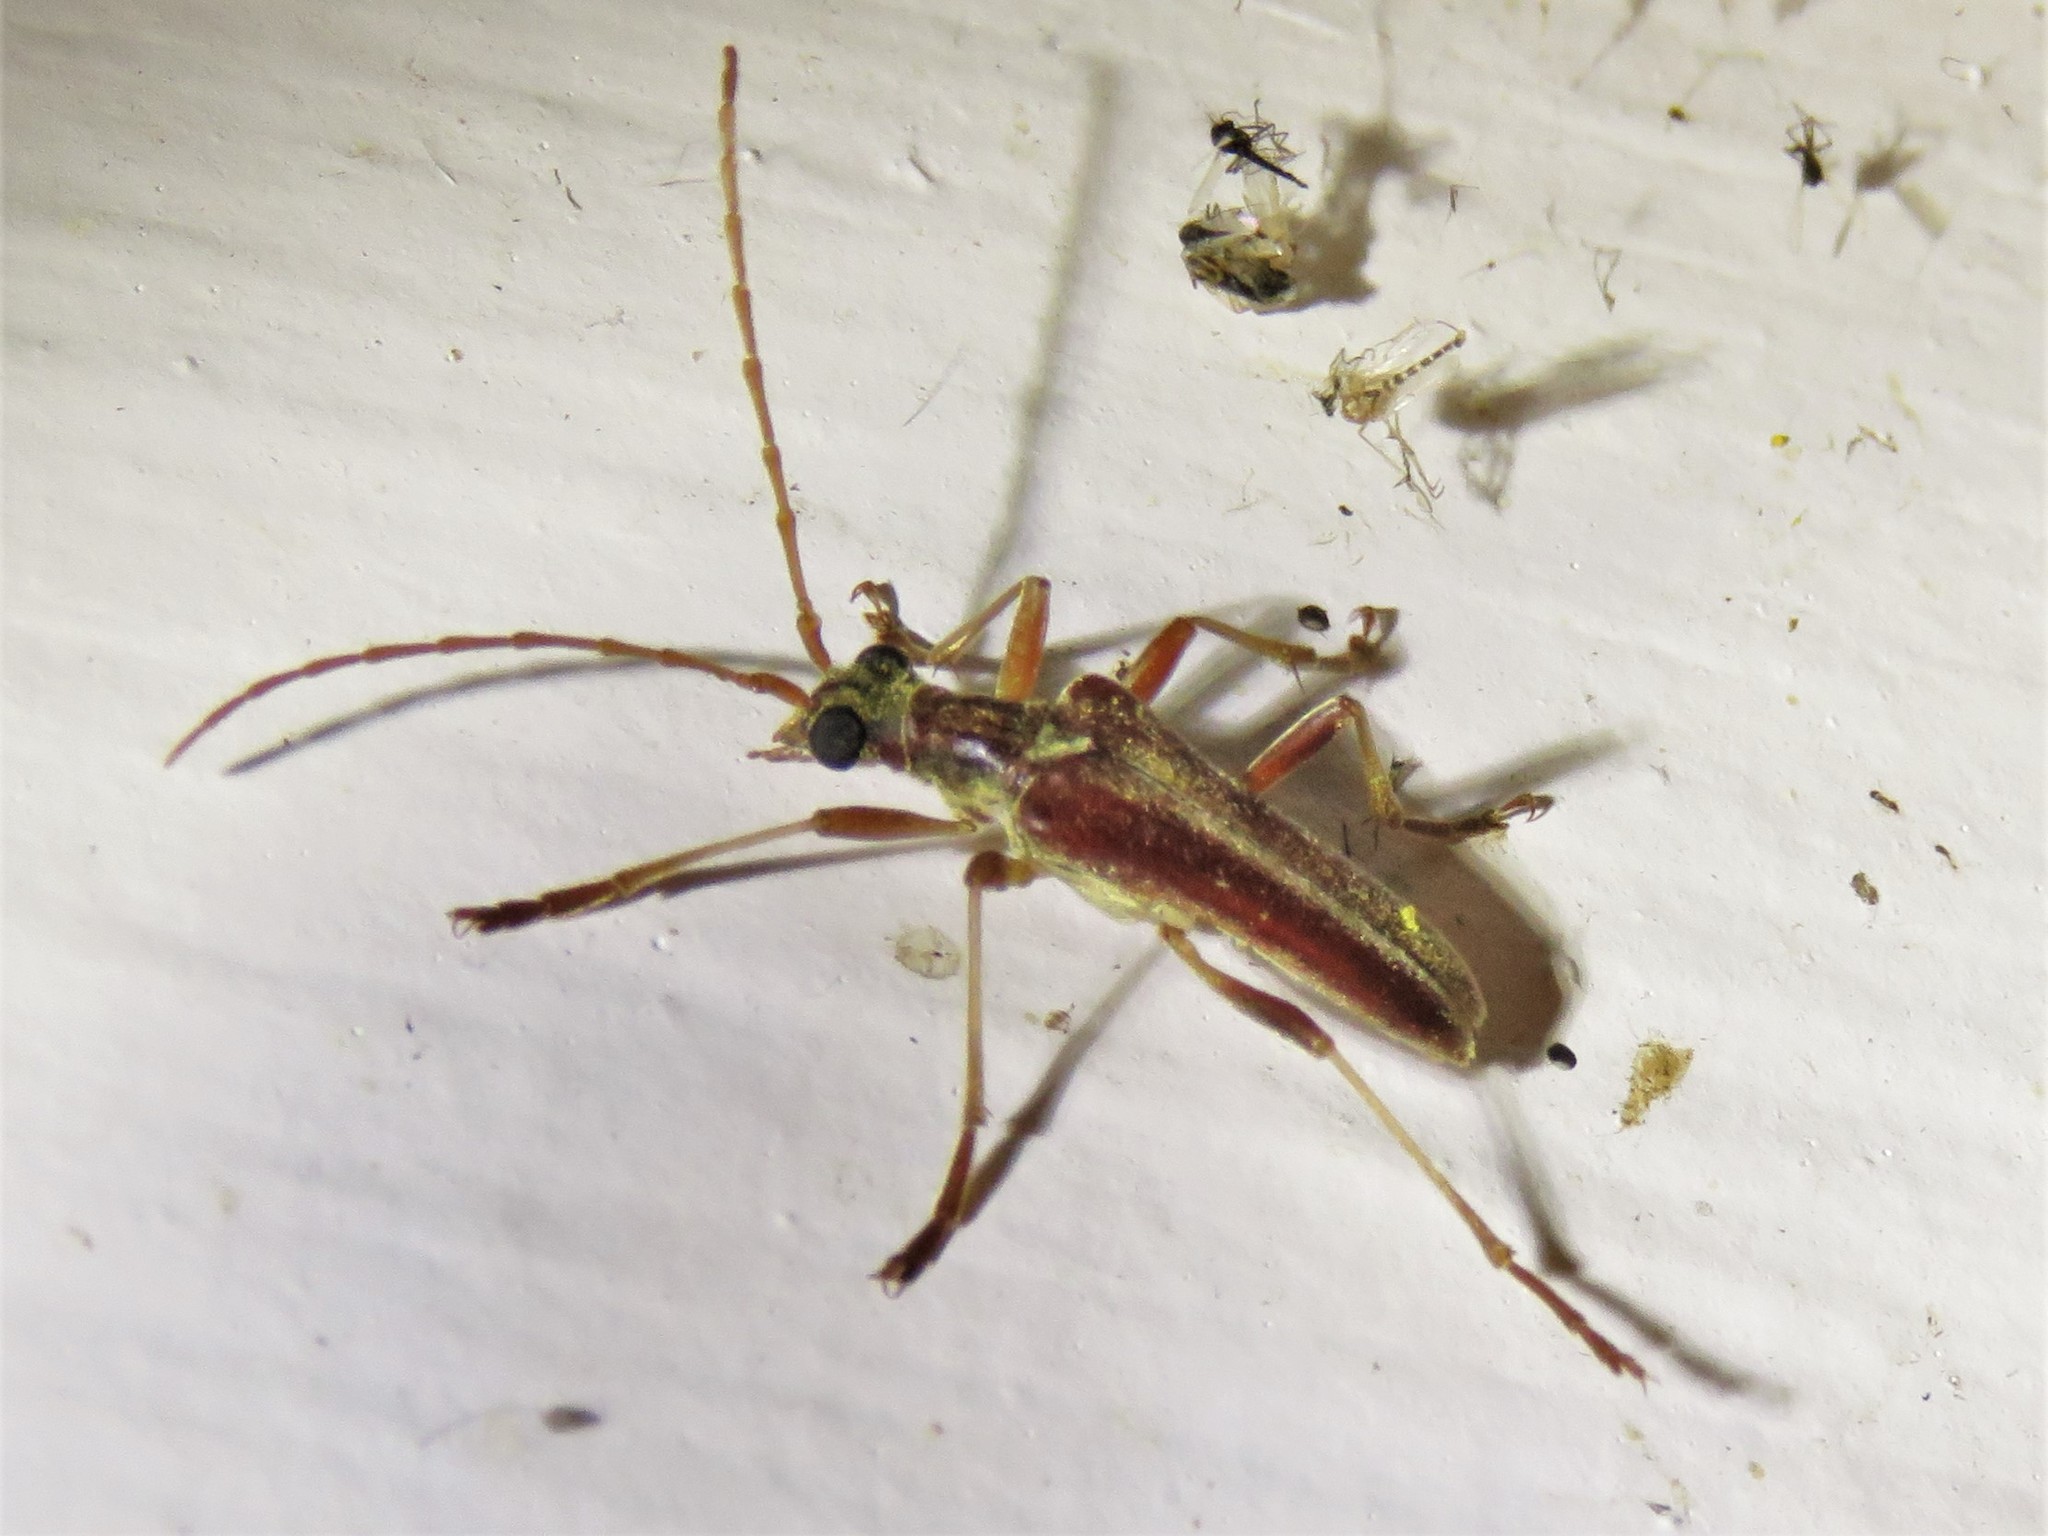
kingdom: Animalia
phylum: Arthropoda
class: Insecta
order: Coleoptera
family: Cerambycidae
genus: Stenocorus
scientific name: Stenocorus cinnamopterus
